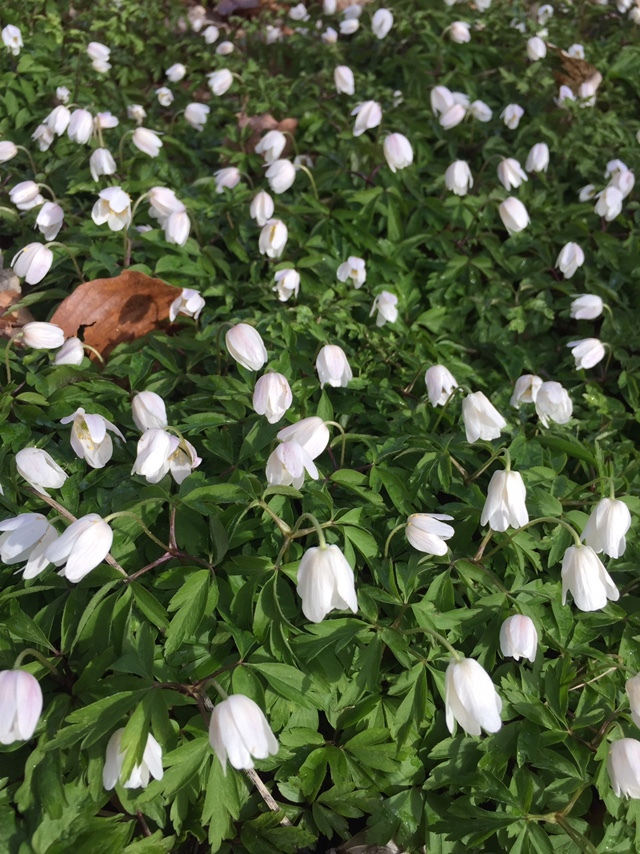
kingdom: Plantae
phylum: Tracheophyta
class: Magnoliopsida
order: Ranunculales
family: Ranunculaceae
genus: Anemone
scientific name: Anemone nemorosa
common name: Wood anemone
